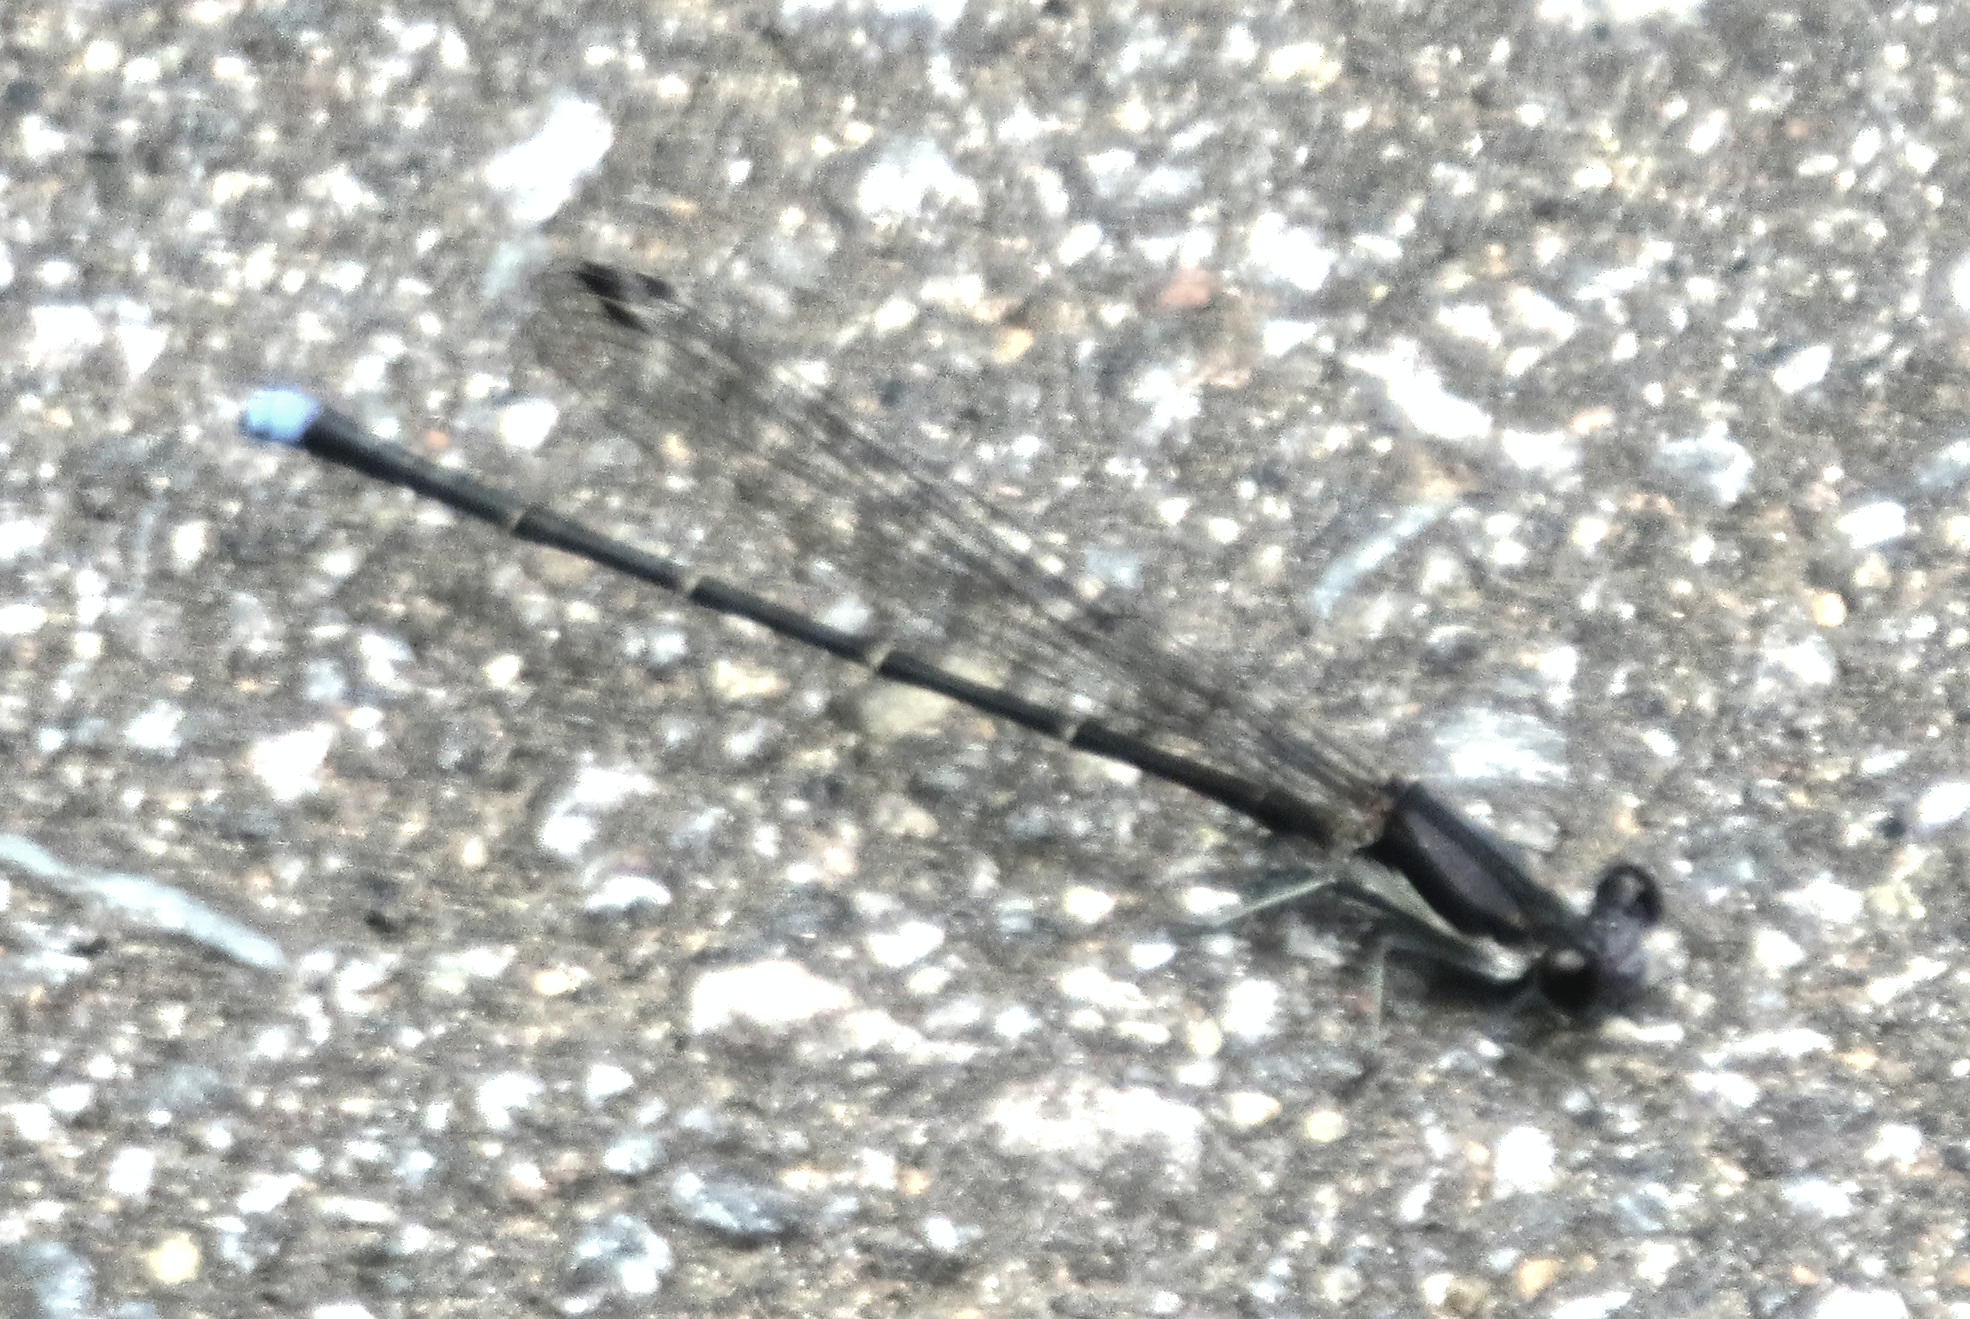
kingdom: Animalia
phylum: Arthropoda
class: Insecta
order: Odonata
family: Coenagrionidae
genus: Argia
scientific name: Argia tibialis
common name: Blue-tipped dancer
